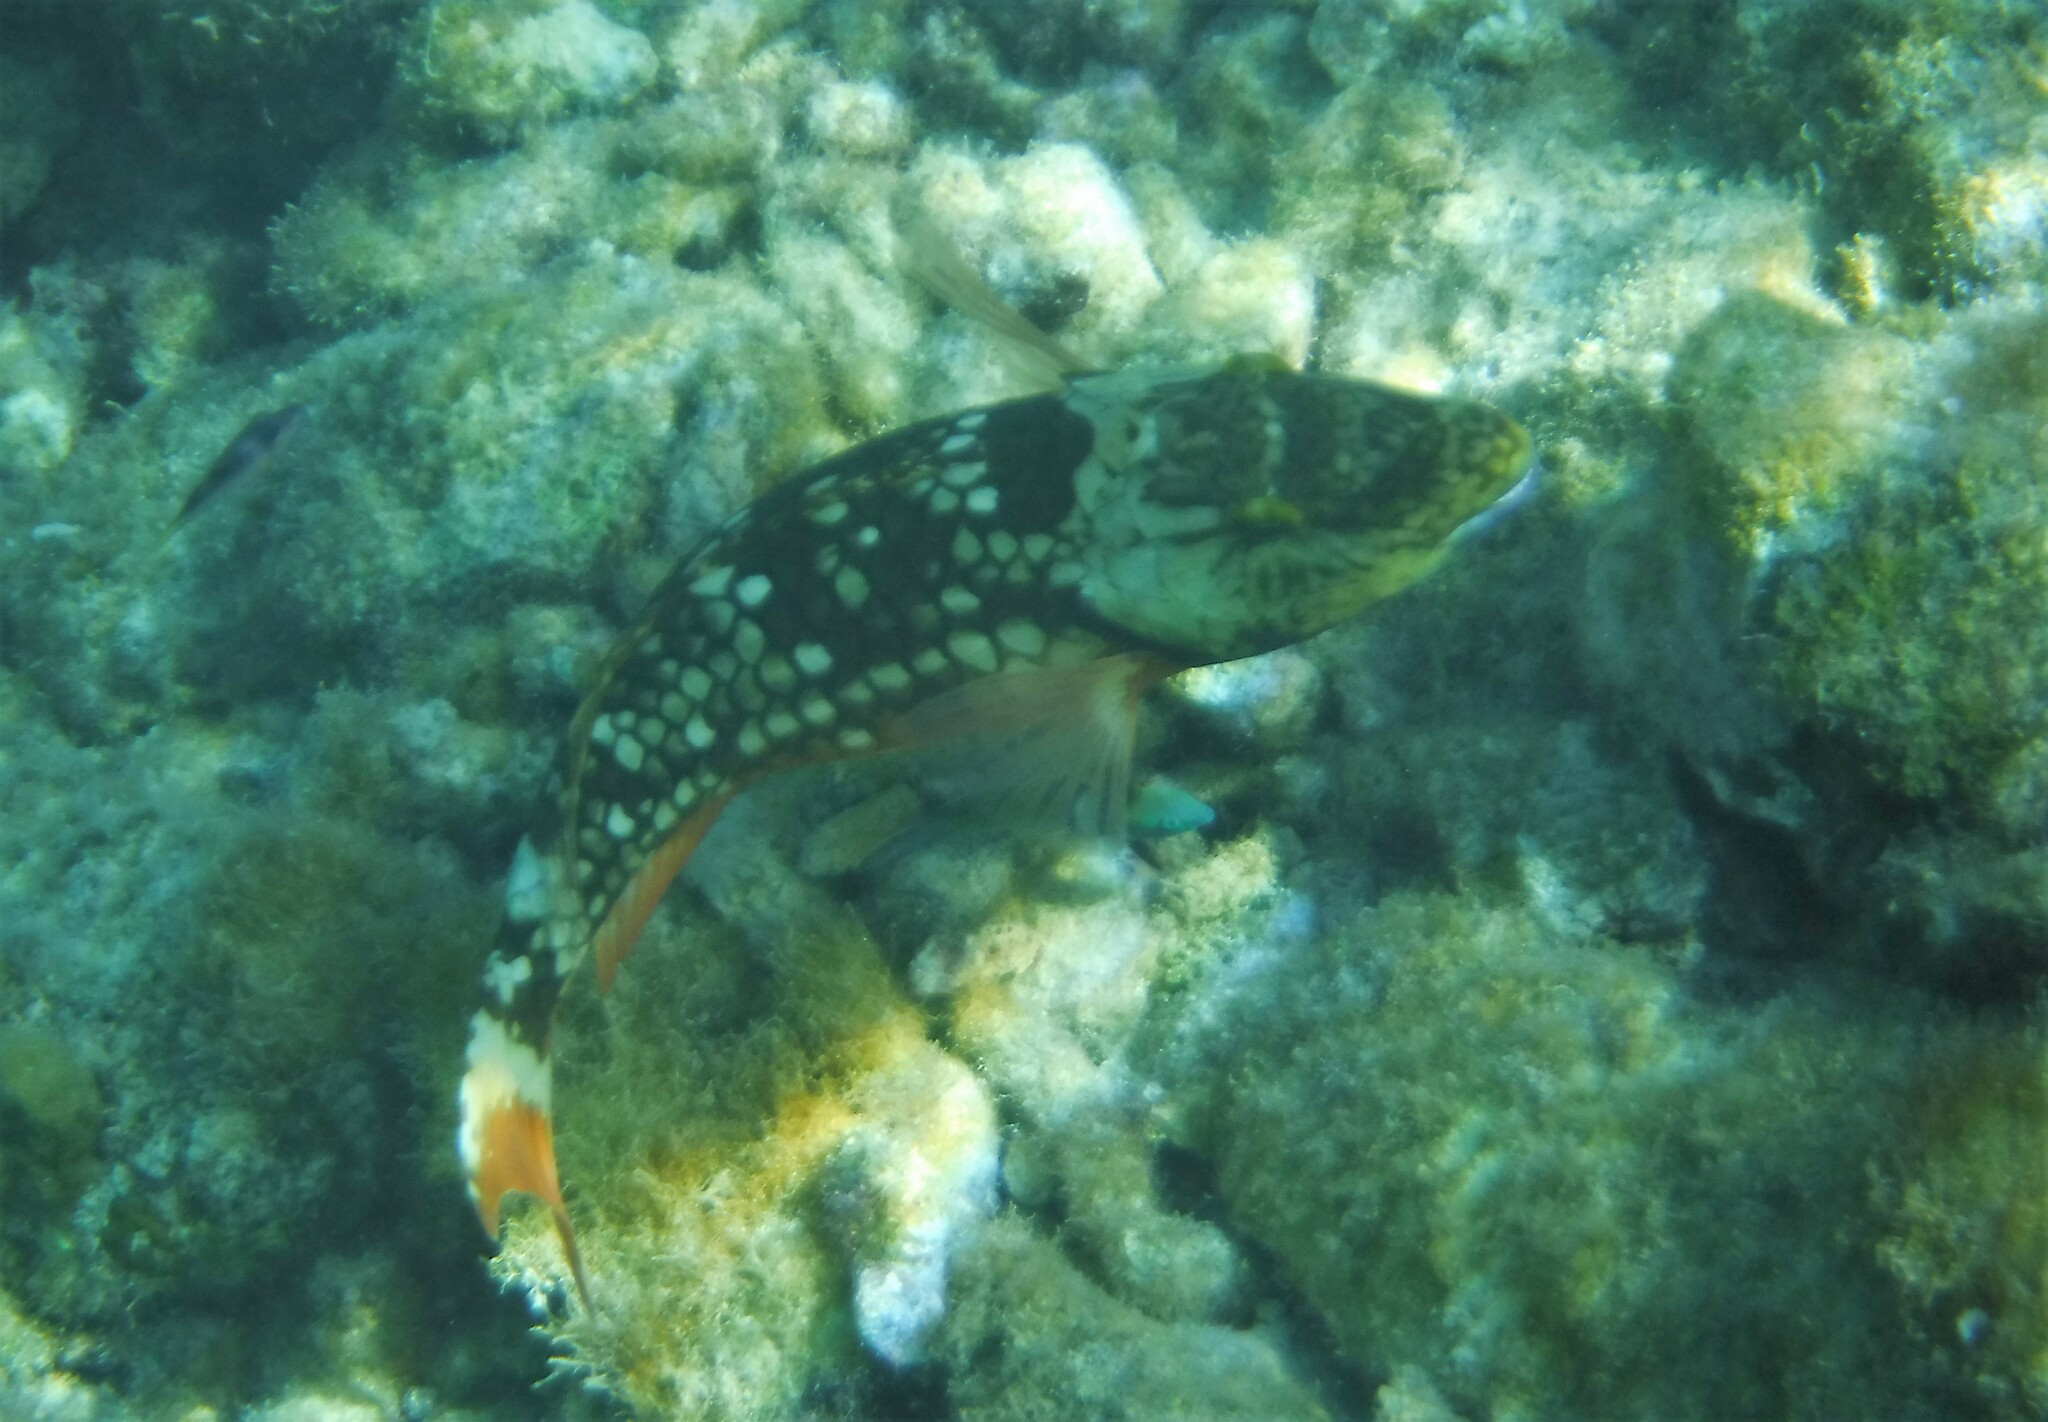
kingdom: Animalia
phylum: Chordata
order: Perciformes
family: Scaridae
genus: Sparisoma
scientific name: Sparisoma viride
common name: Stoplight parrotfish
